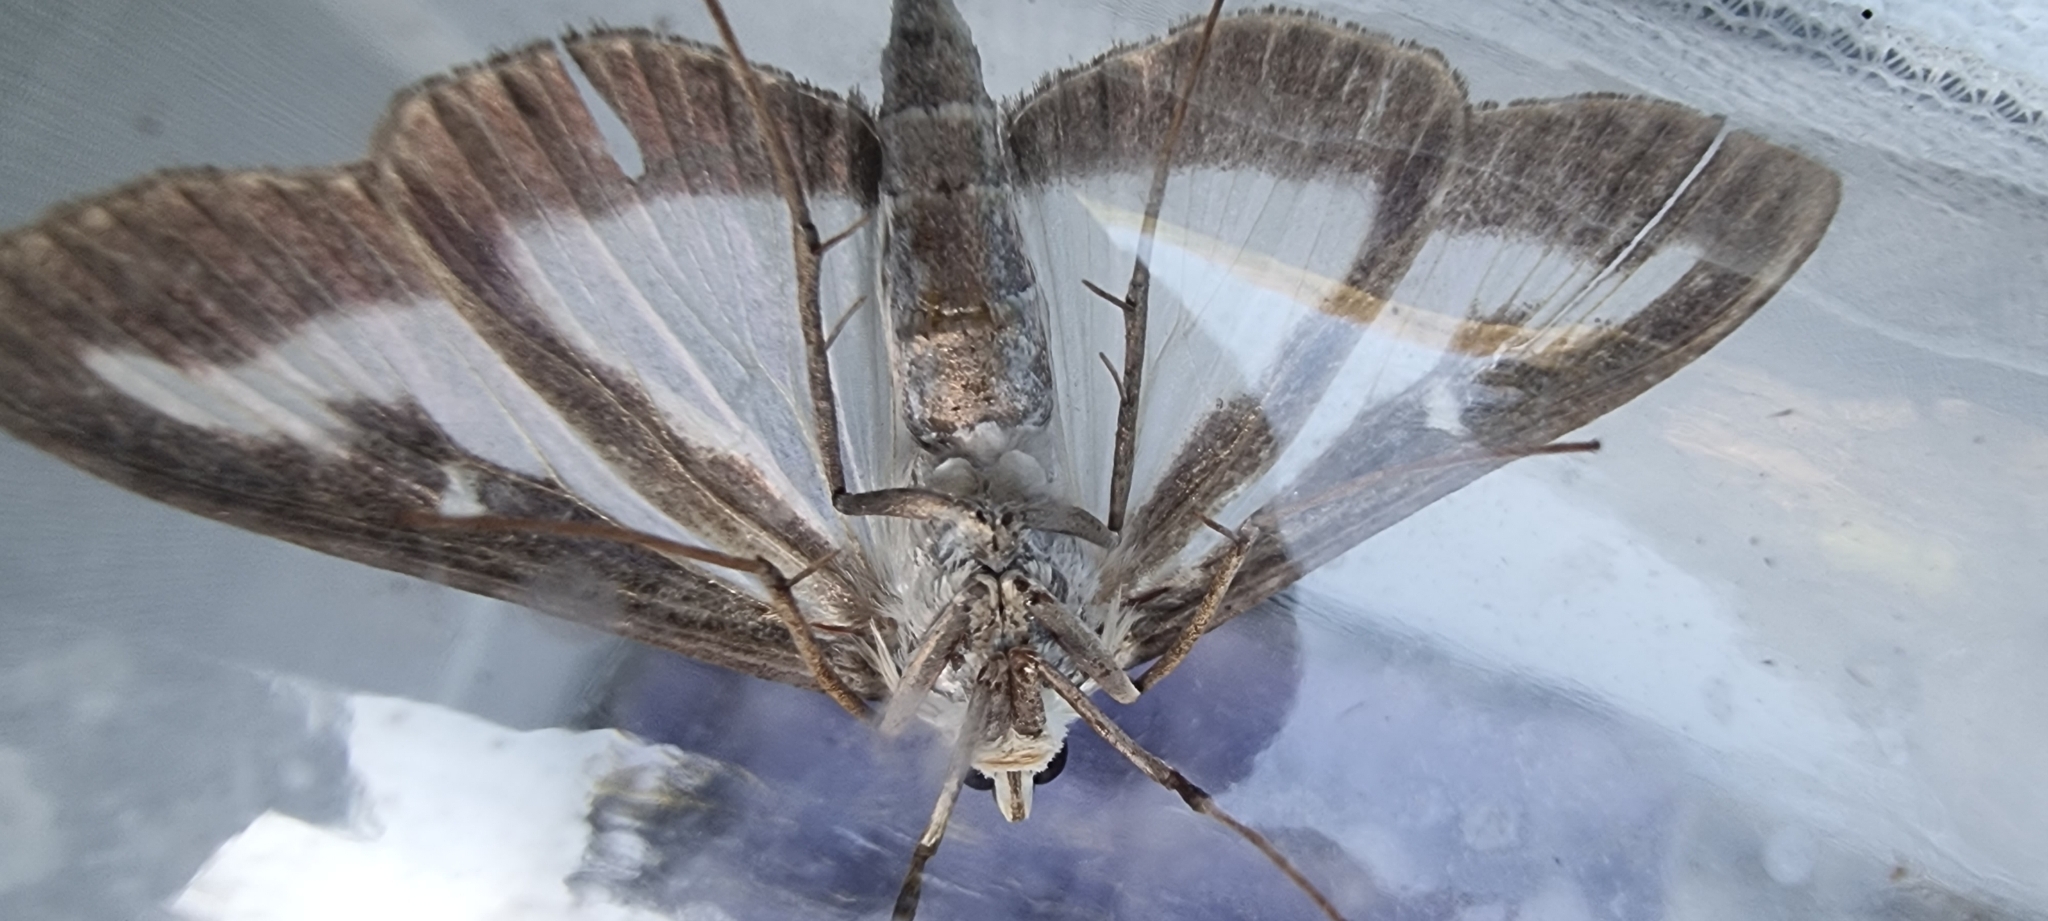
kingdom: Animalia
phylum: Arthropoda
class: Insecta
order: Lepidoptera
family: Crambidae
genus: Cydalima
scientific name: Cydalima perspectalis
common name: Box tree moth
